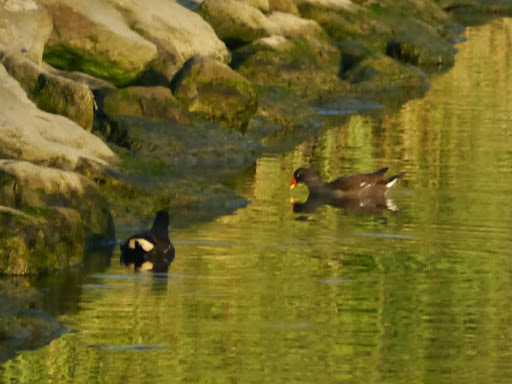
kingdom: Animalia
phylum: Chordata
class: Aves
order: Gruiformes
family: Rallidae
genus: Gallinula
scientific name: Gallinula chloropus
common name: Common moorhen
